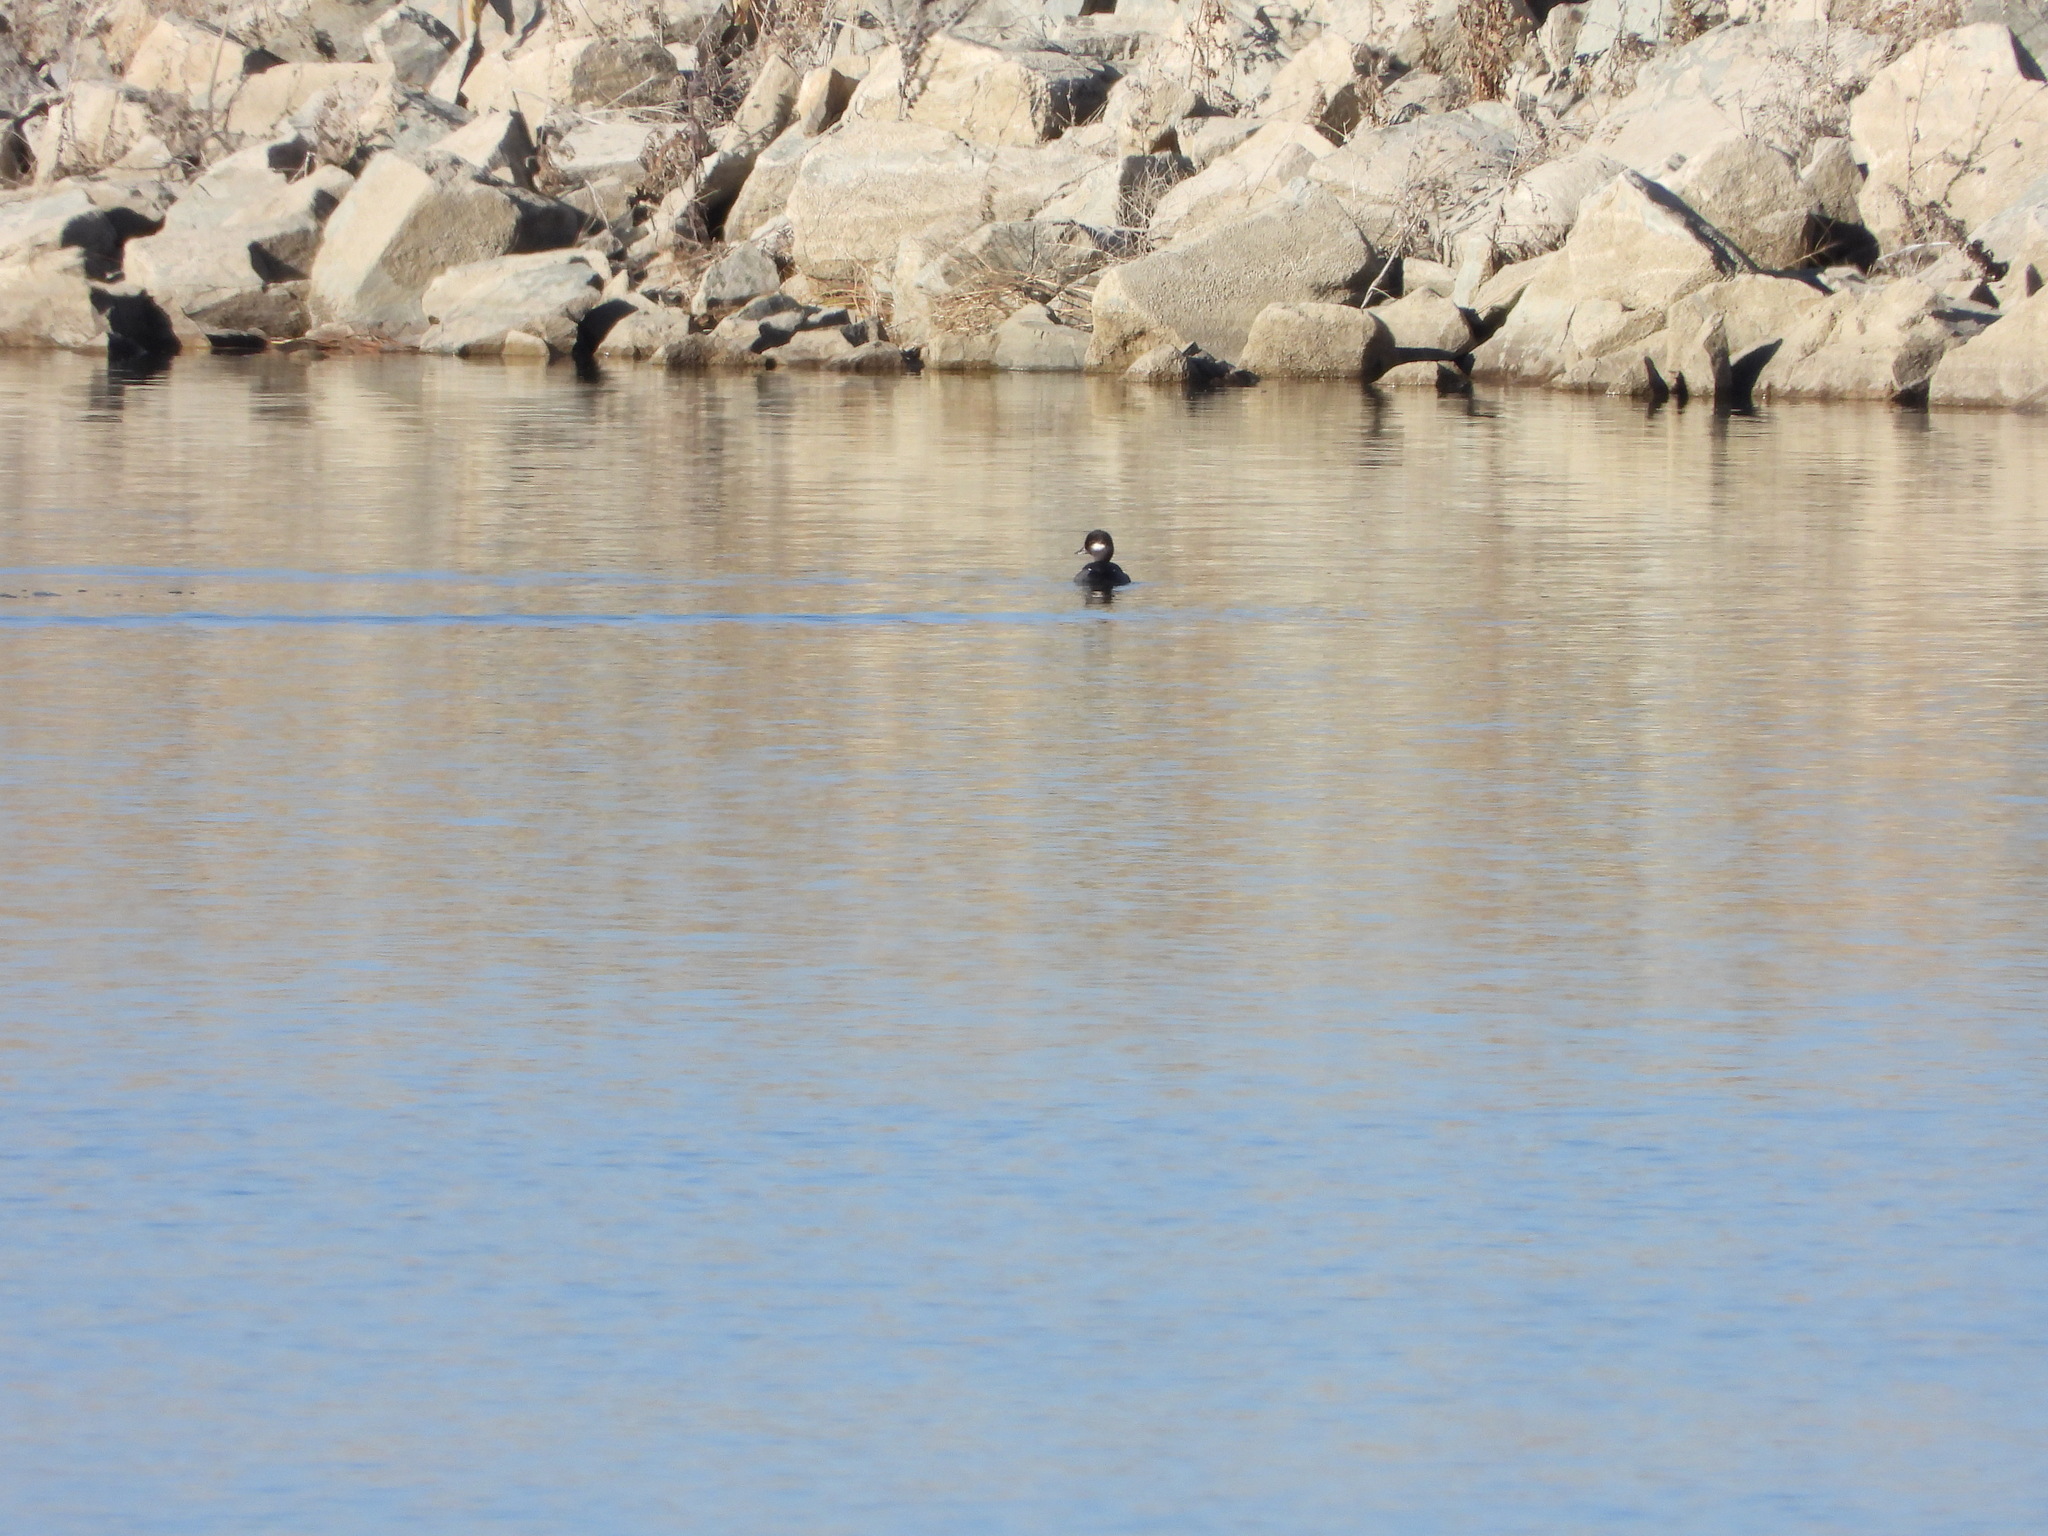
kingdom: Animalia
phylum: Chordata
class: Aves
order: Anseriformes
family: Anatidae
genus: Bucephala
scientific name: Bucephala albeola
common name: Bufflehead
